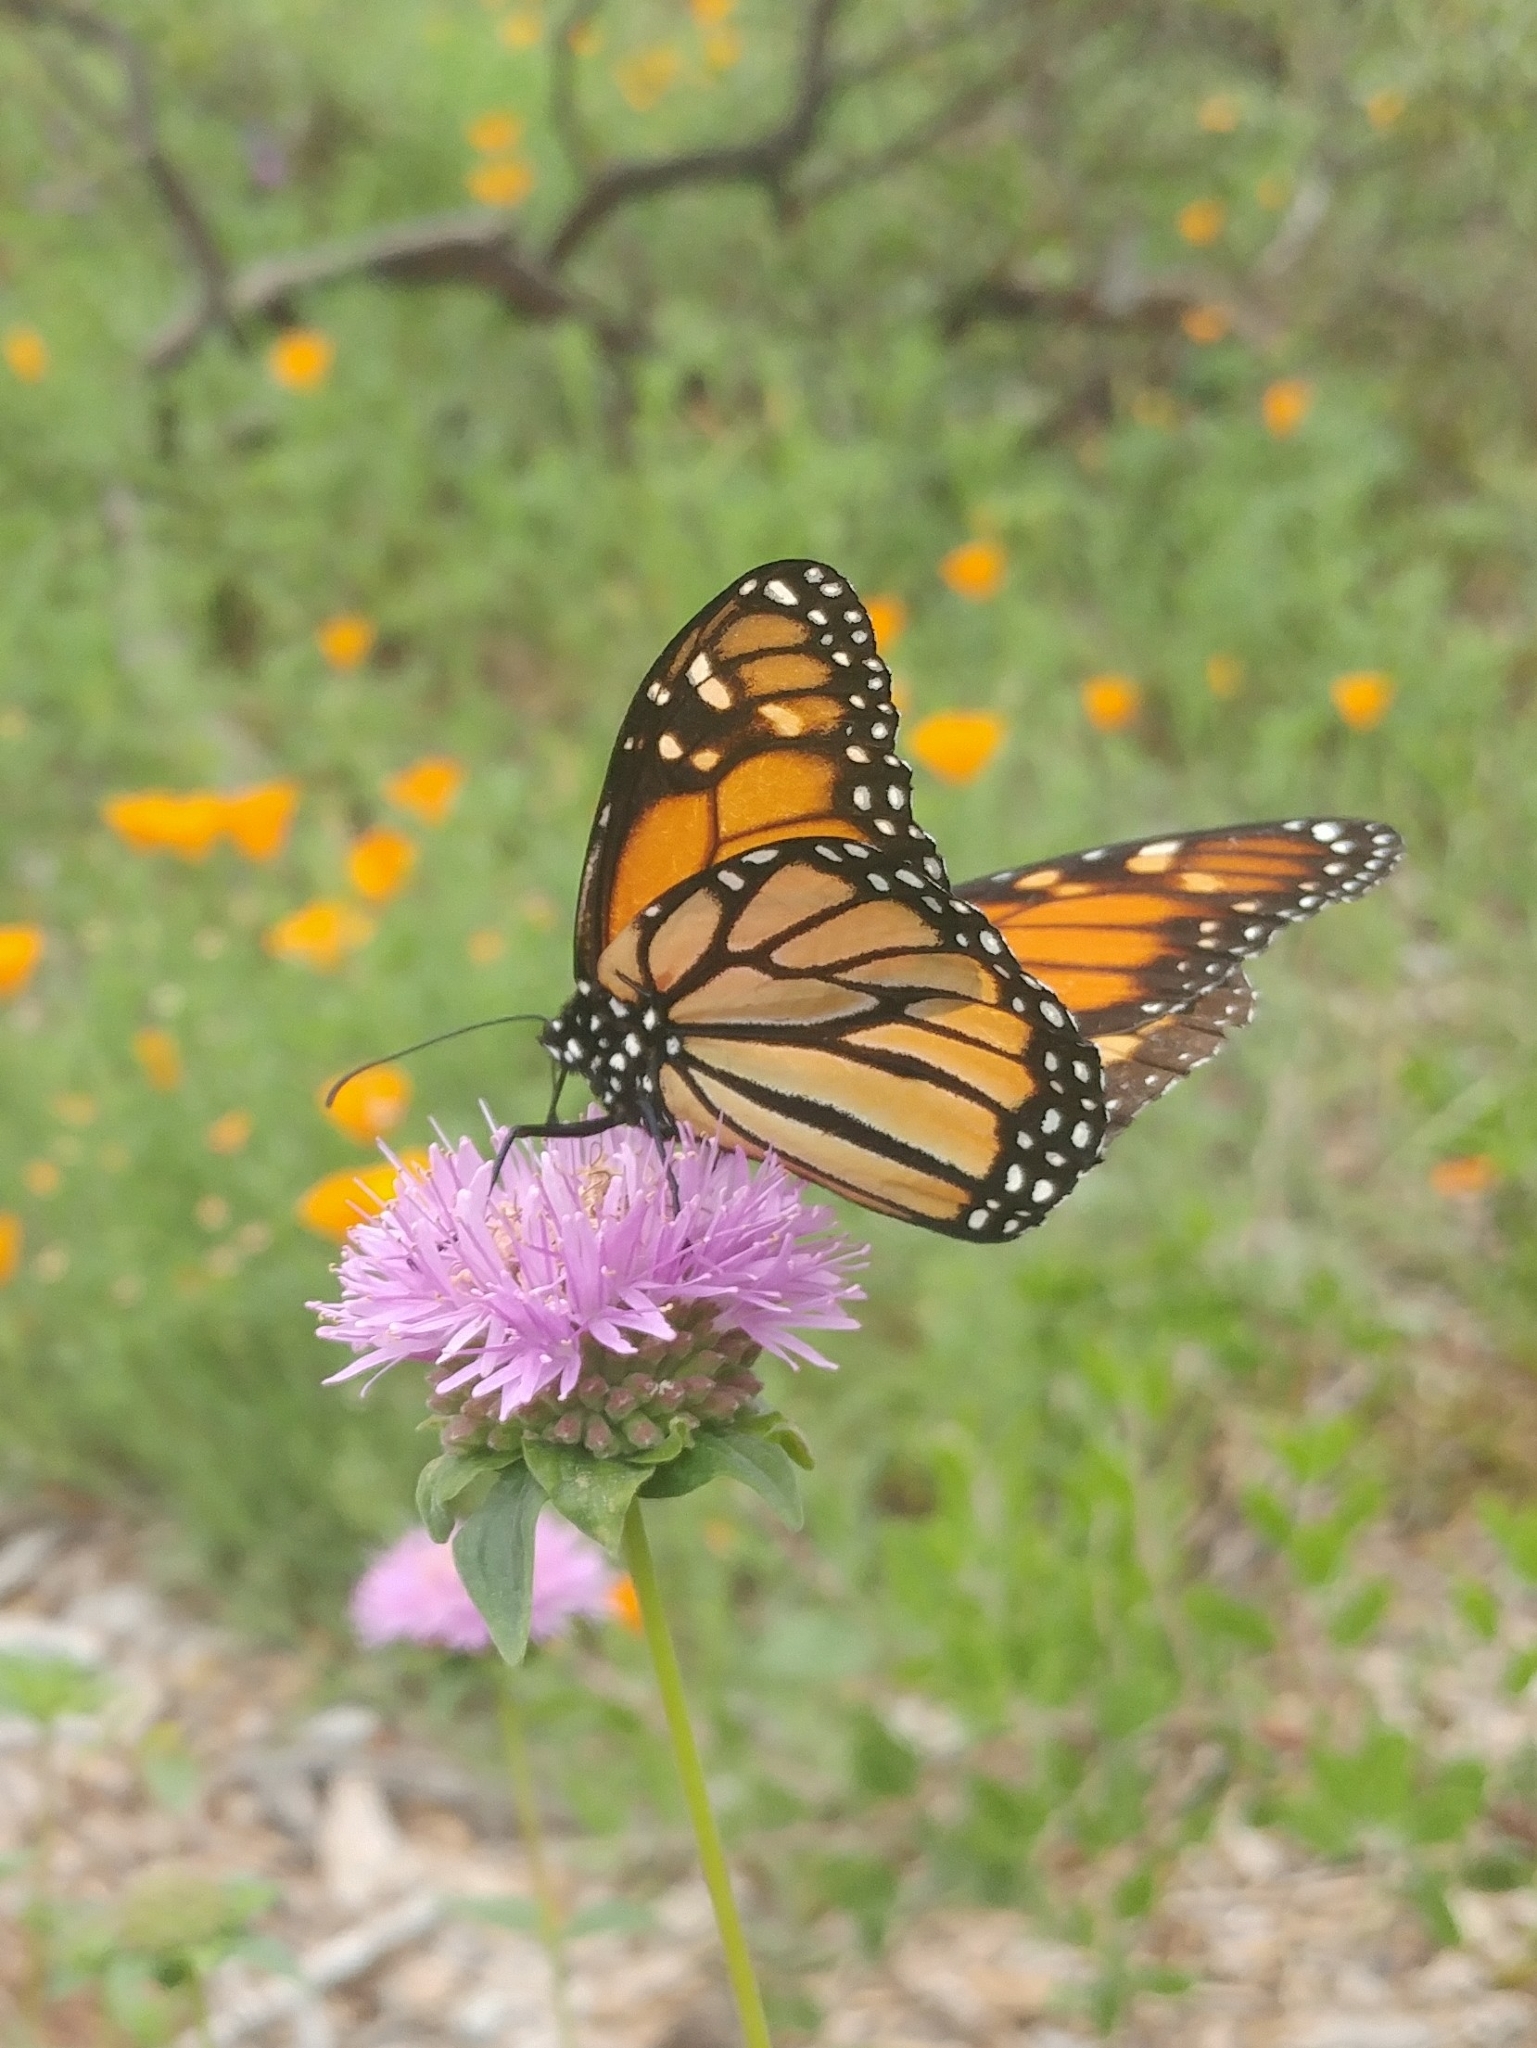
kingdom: Animalia
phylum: Arthropoda
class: Insecta
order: Lepidoptera
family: Nymphalidae
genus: Danaus
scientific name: Danaus plexippus
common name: Monarch
